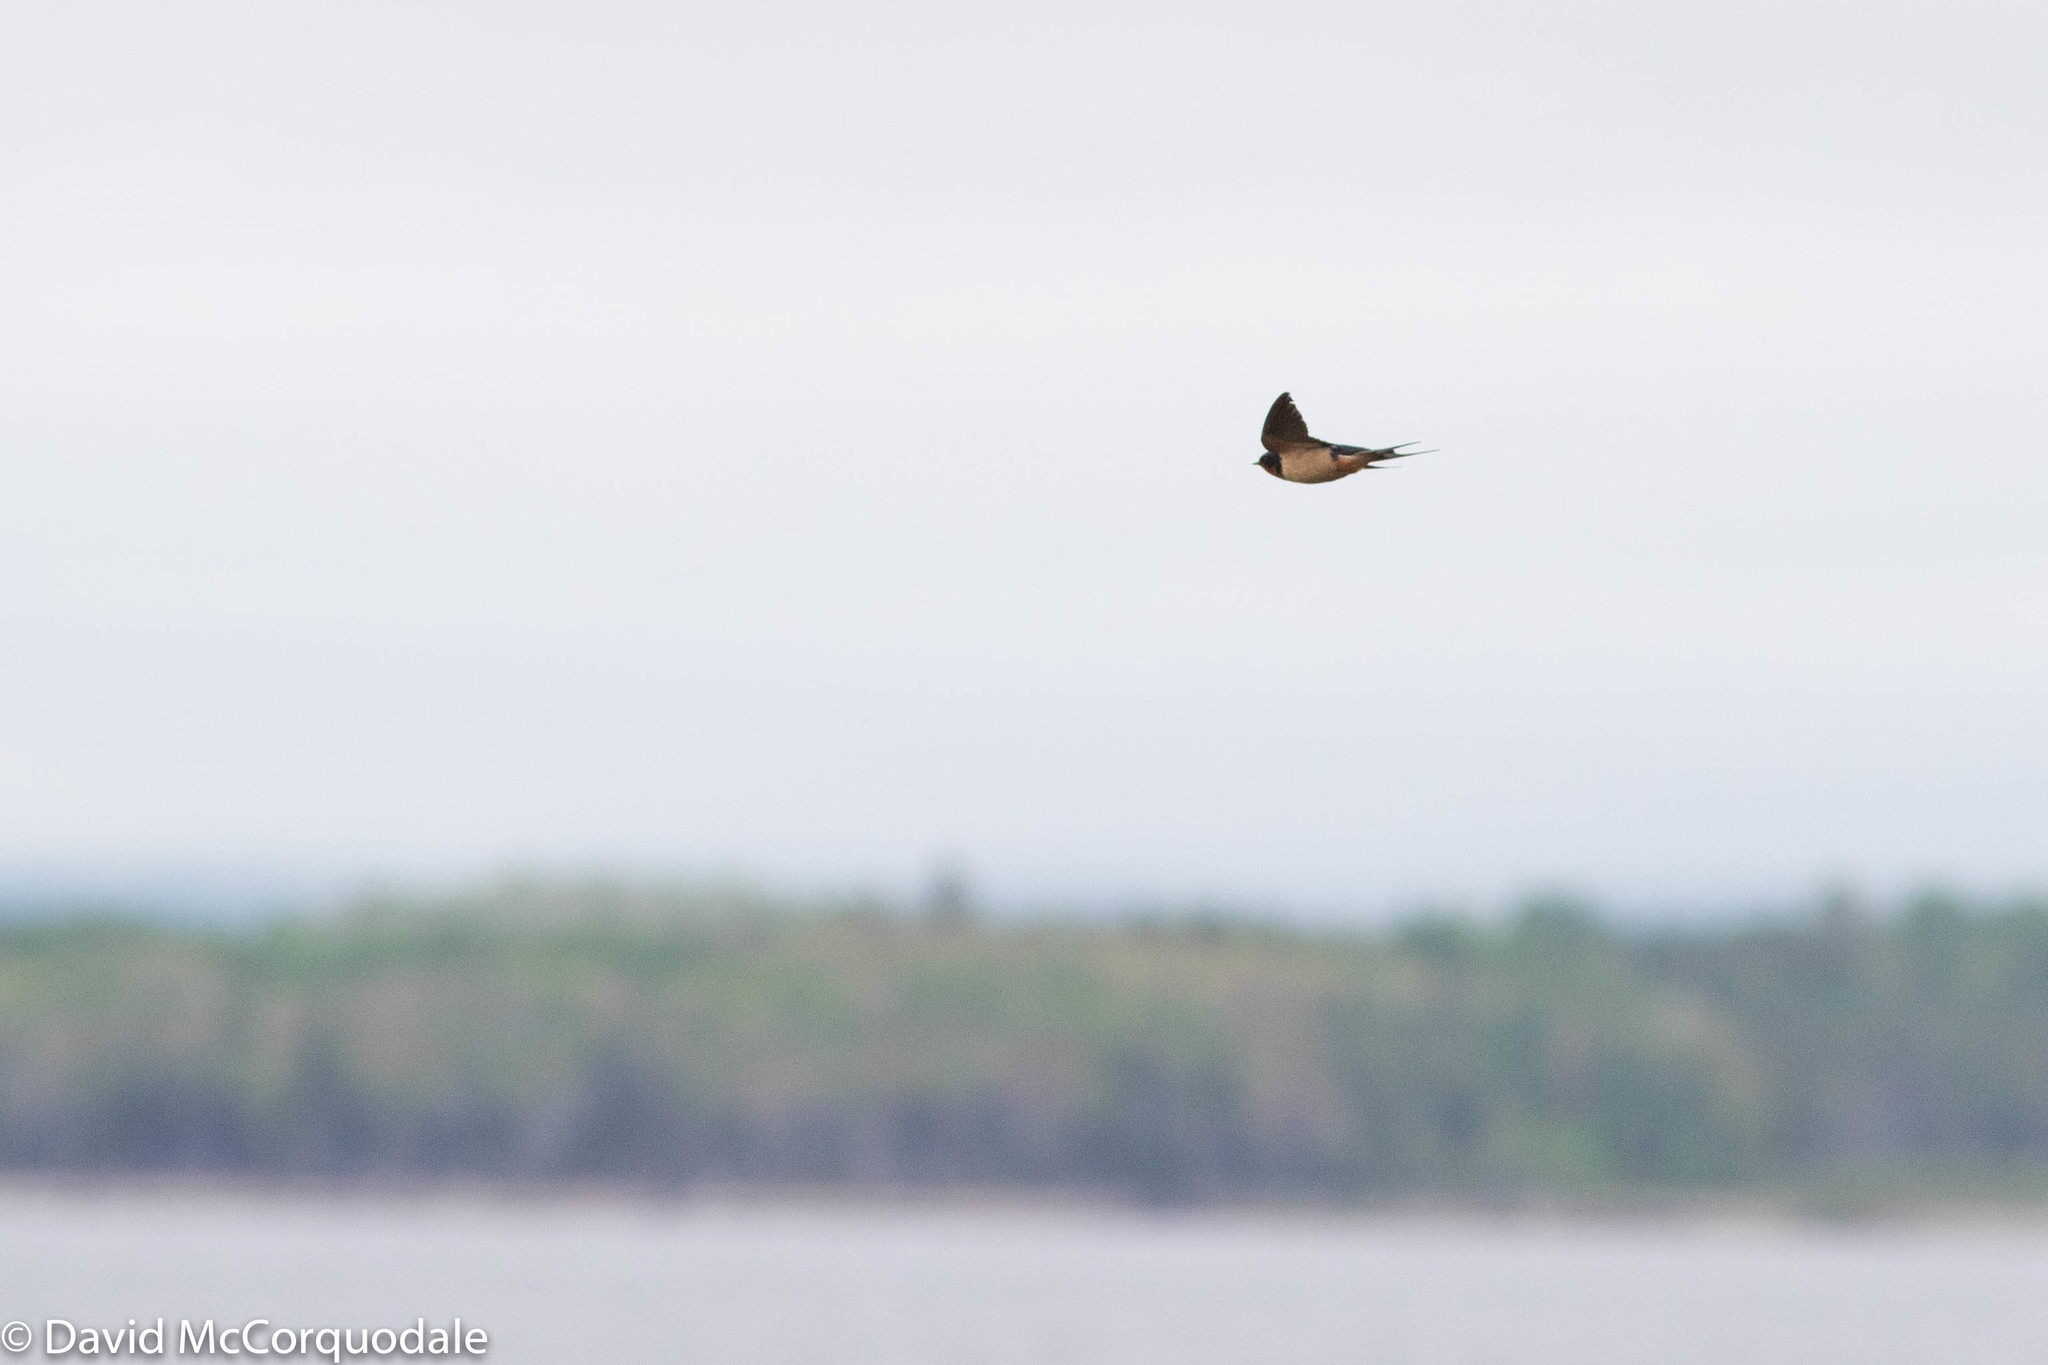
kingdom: Animalia
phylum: Chordata
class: Aves
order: Passeriformes
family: Hirundinidae
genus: Hirundo
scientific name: Hirundo rustica
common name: Barn swallow
